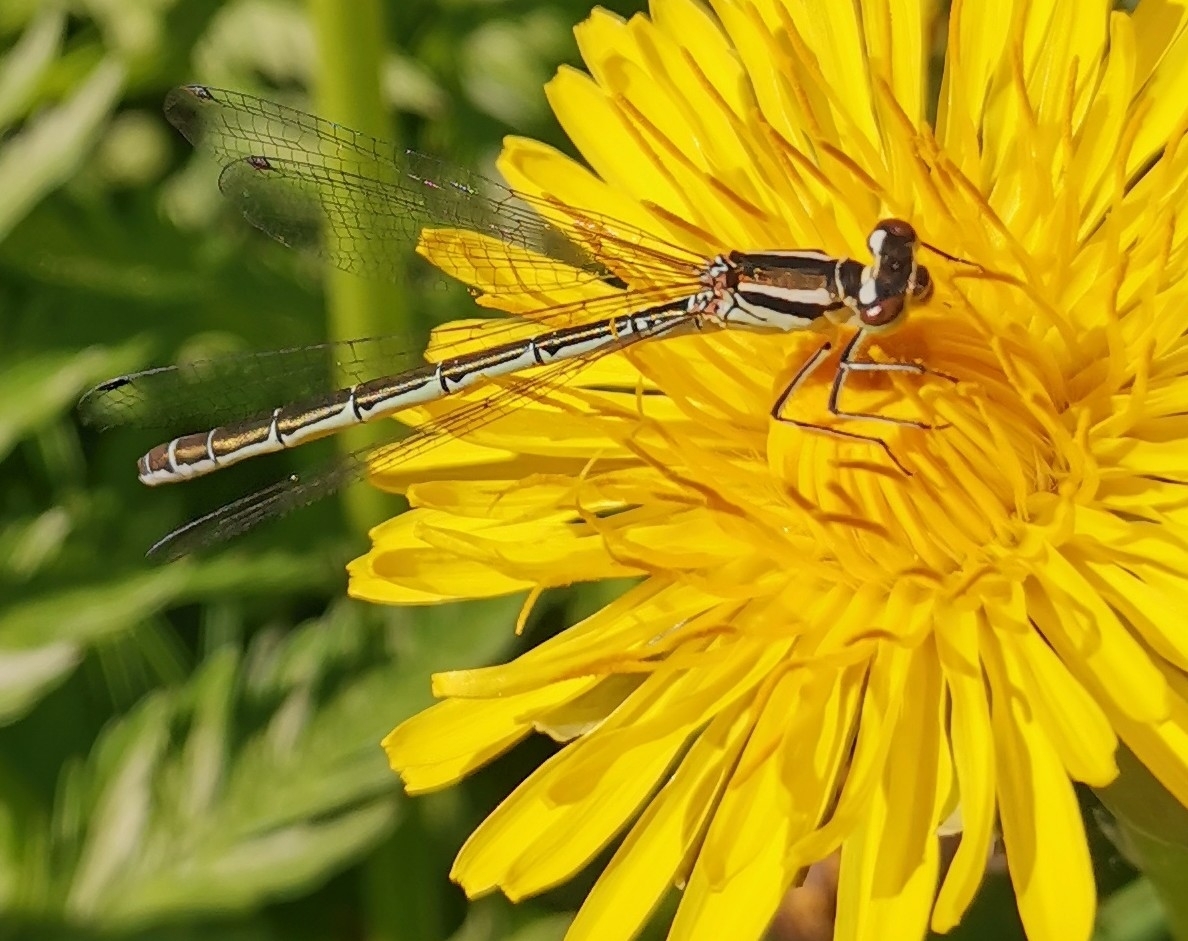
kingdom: Animalia
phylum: Arthropoda
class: Insecta
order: Odonata
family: Coenagrionidae
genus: Coenagrion
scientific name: Coenagrion hastulatum
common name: Spearhead bluet
